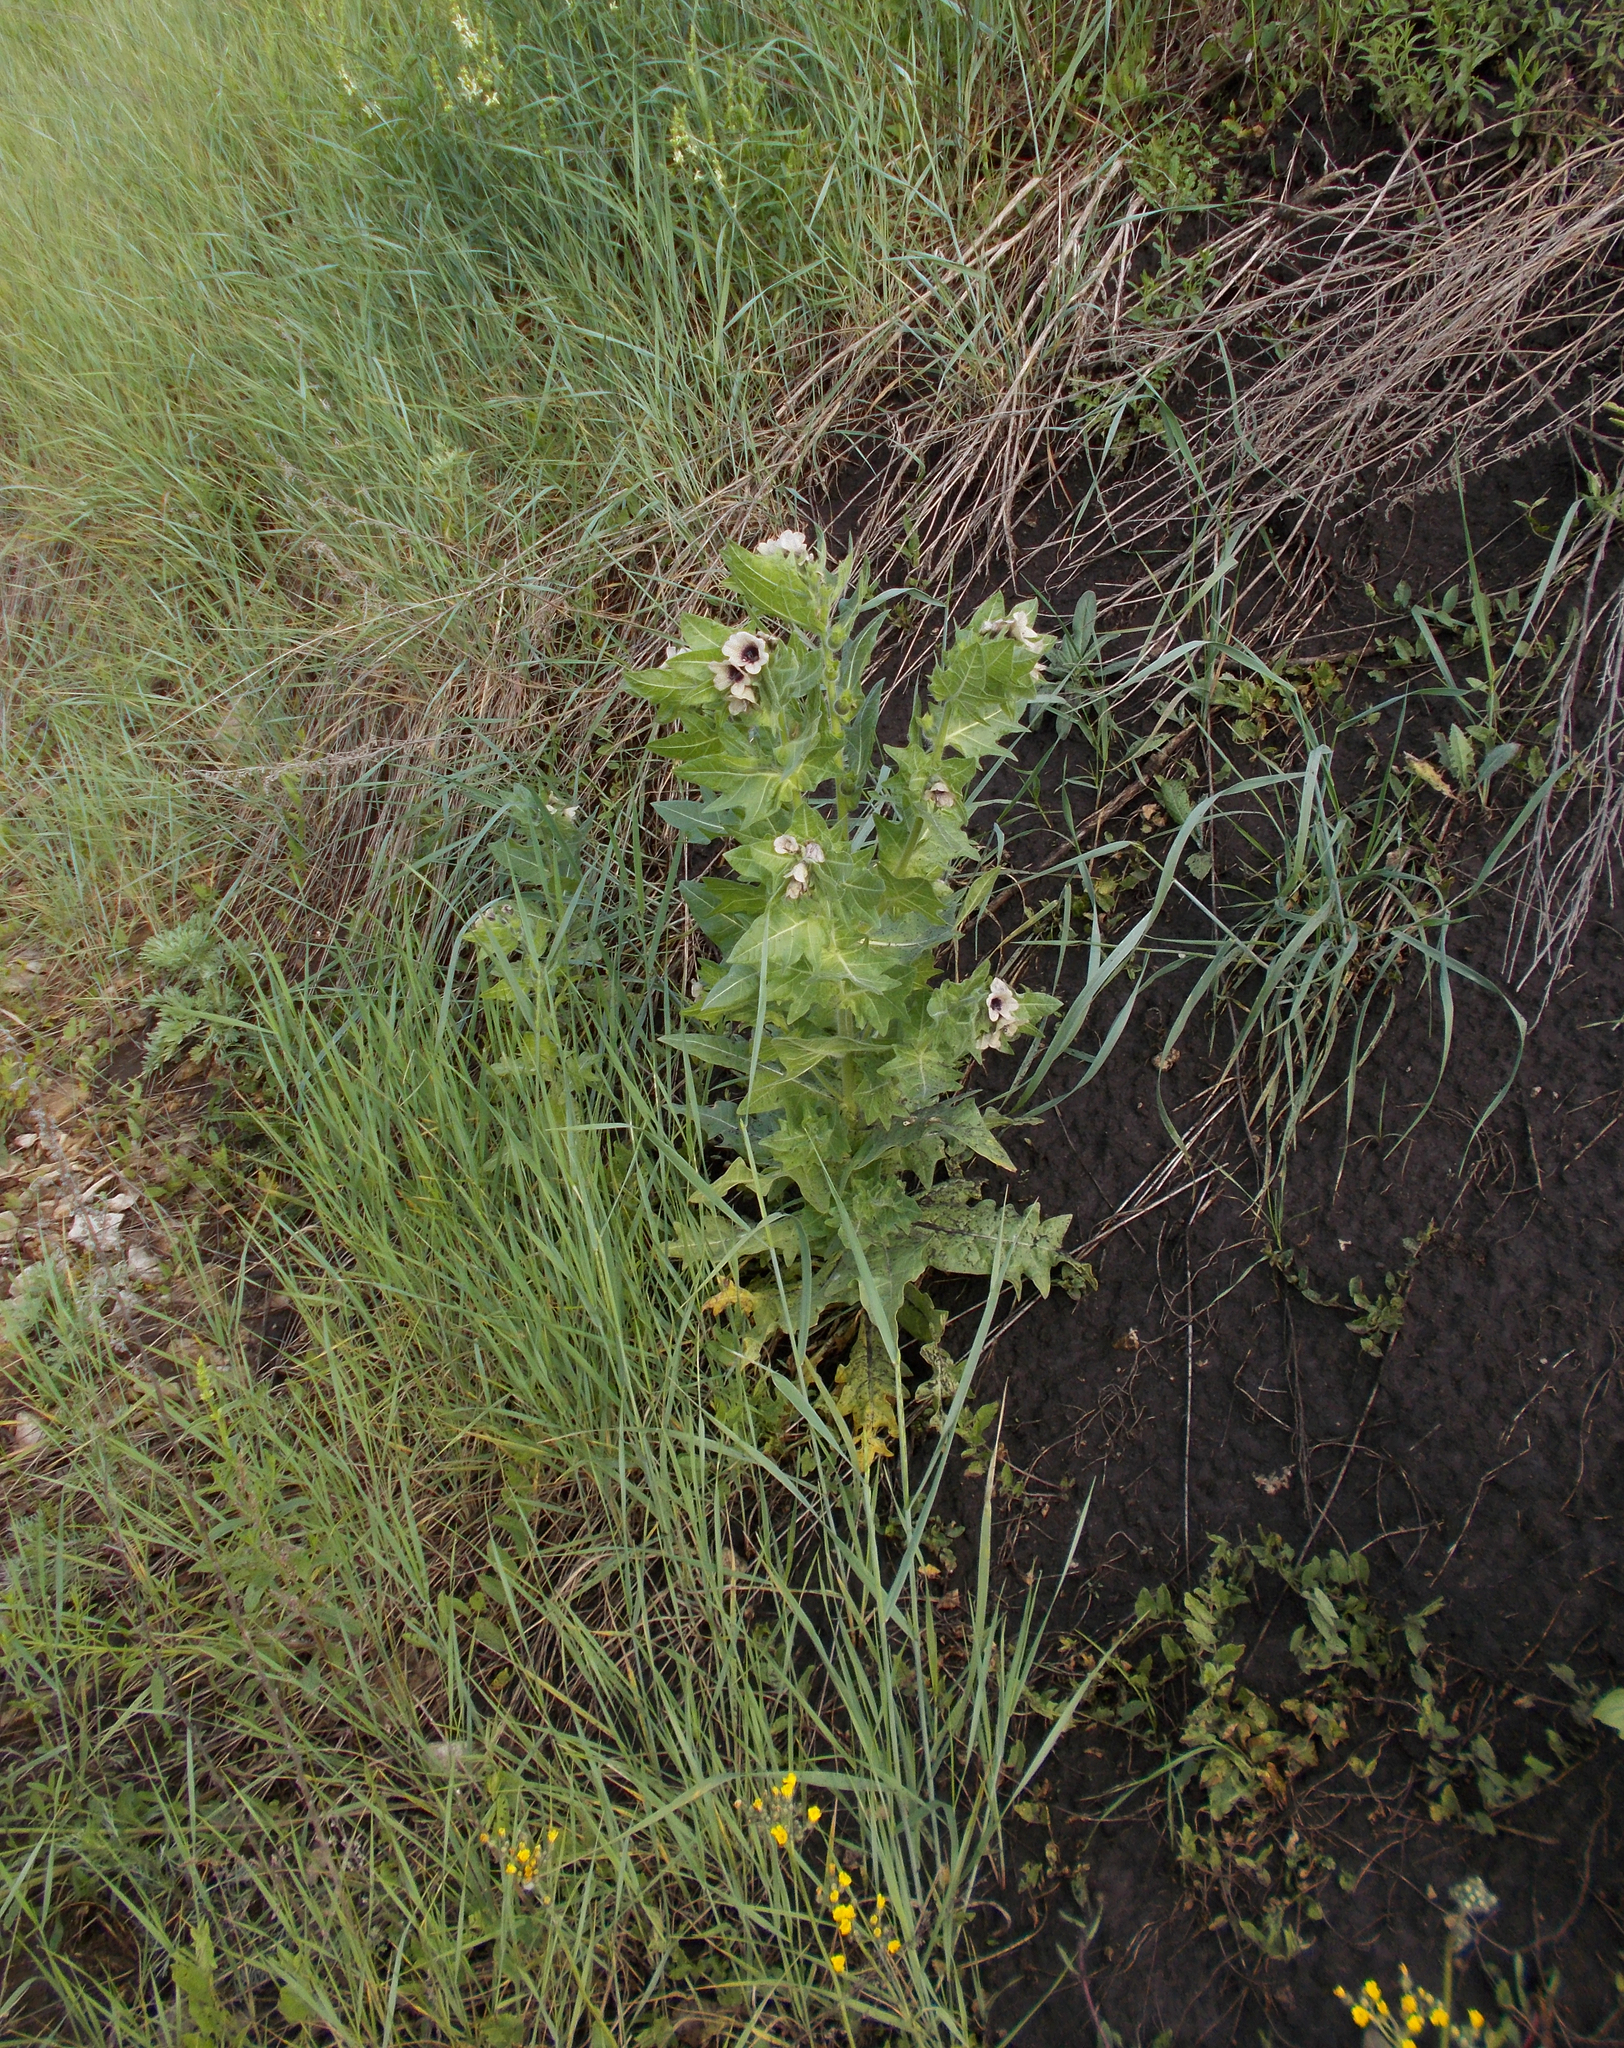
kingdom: Plantae
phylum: Tracheophyta
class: Magnoliopsida
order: Solanales
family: Solanaceae
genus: Hyoscyamus
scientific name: Hyoscyamus niger
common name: Henbane
